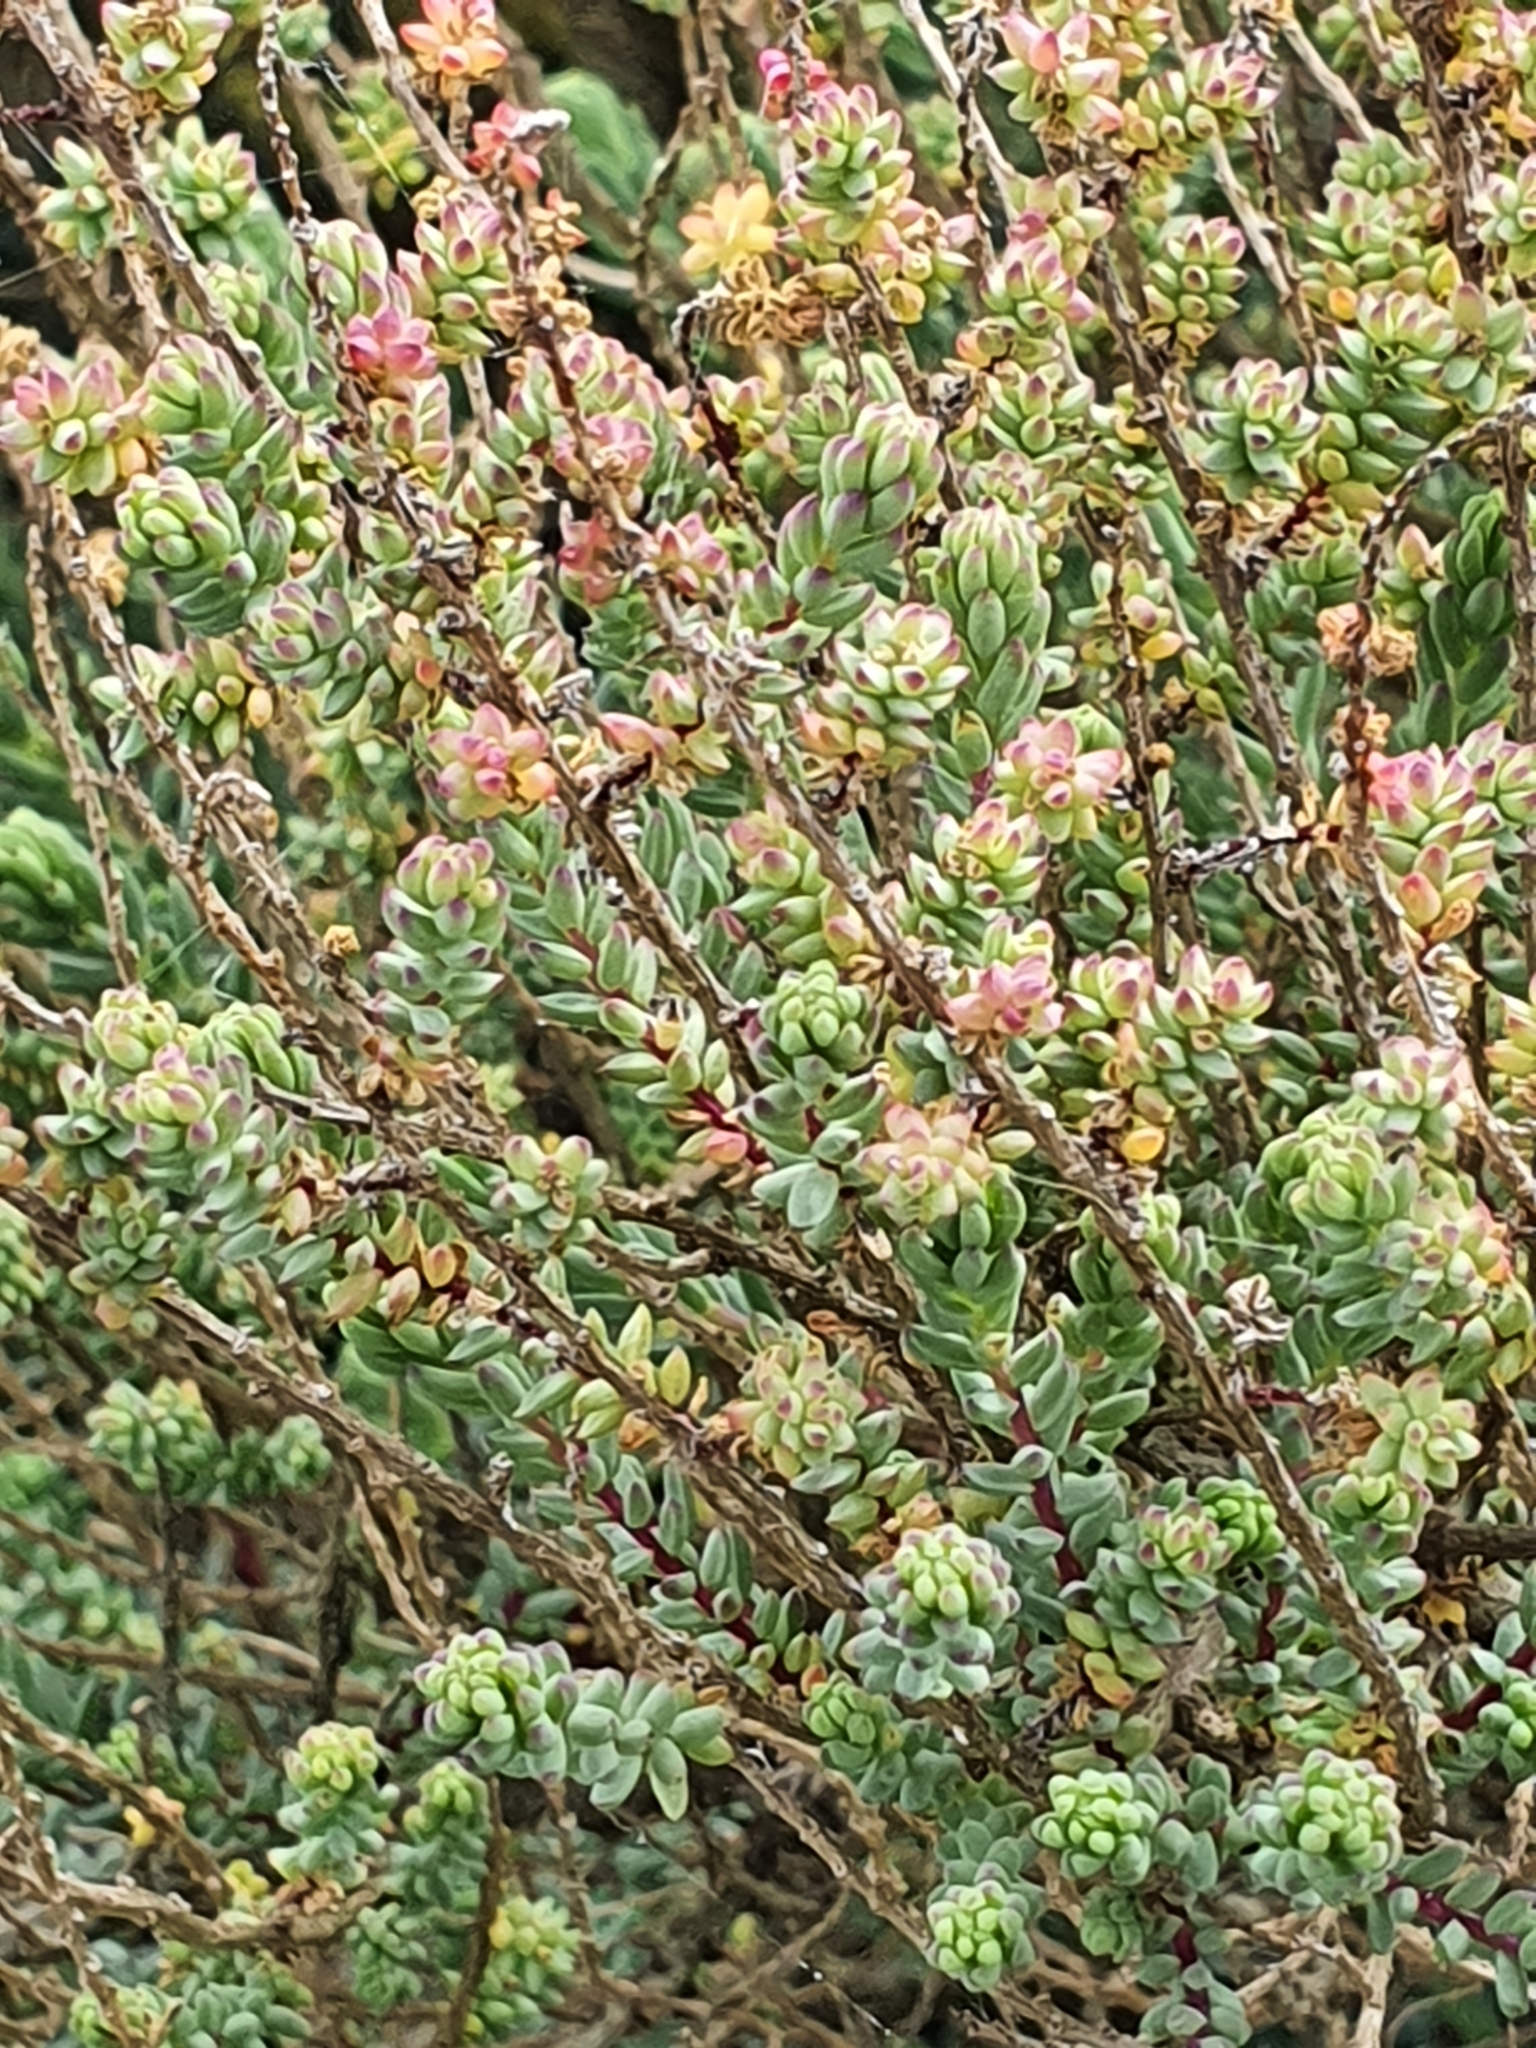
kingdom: Plantae
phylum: Tracheophyta
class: Magnoliopsida
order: Caryophyllales
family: Amaranthaceae
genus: Suaeda
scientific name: Suaeda vera
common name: Shrubby sea-blite
